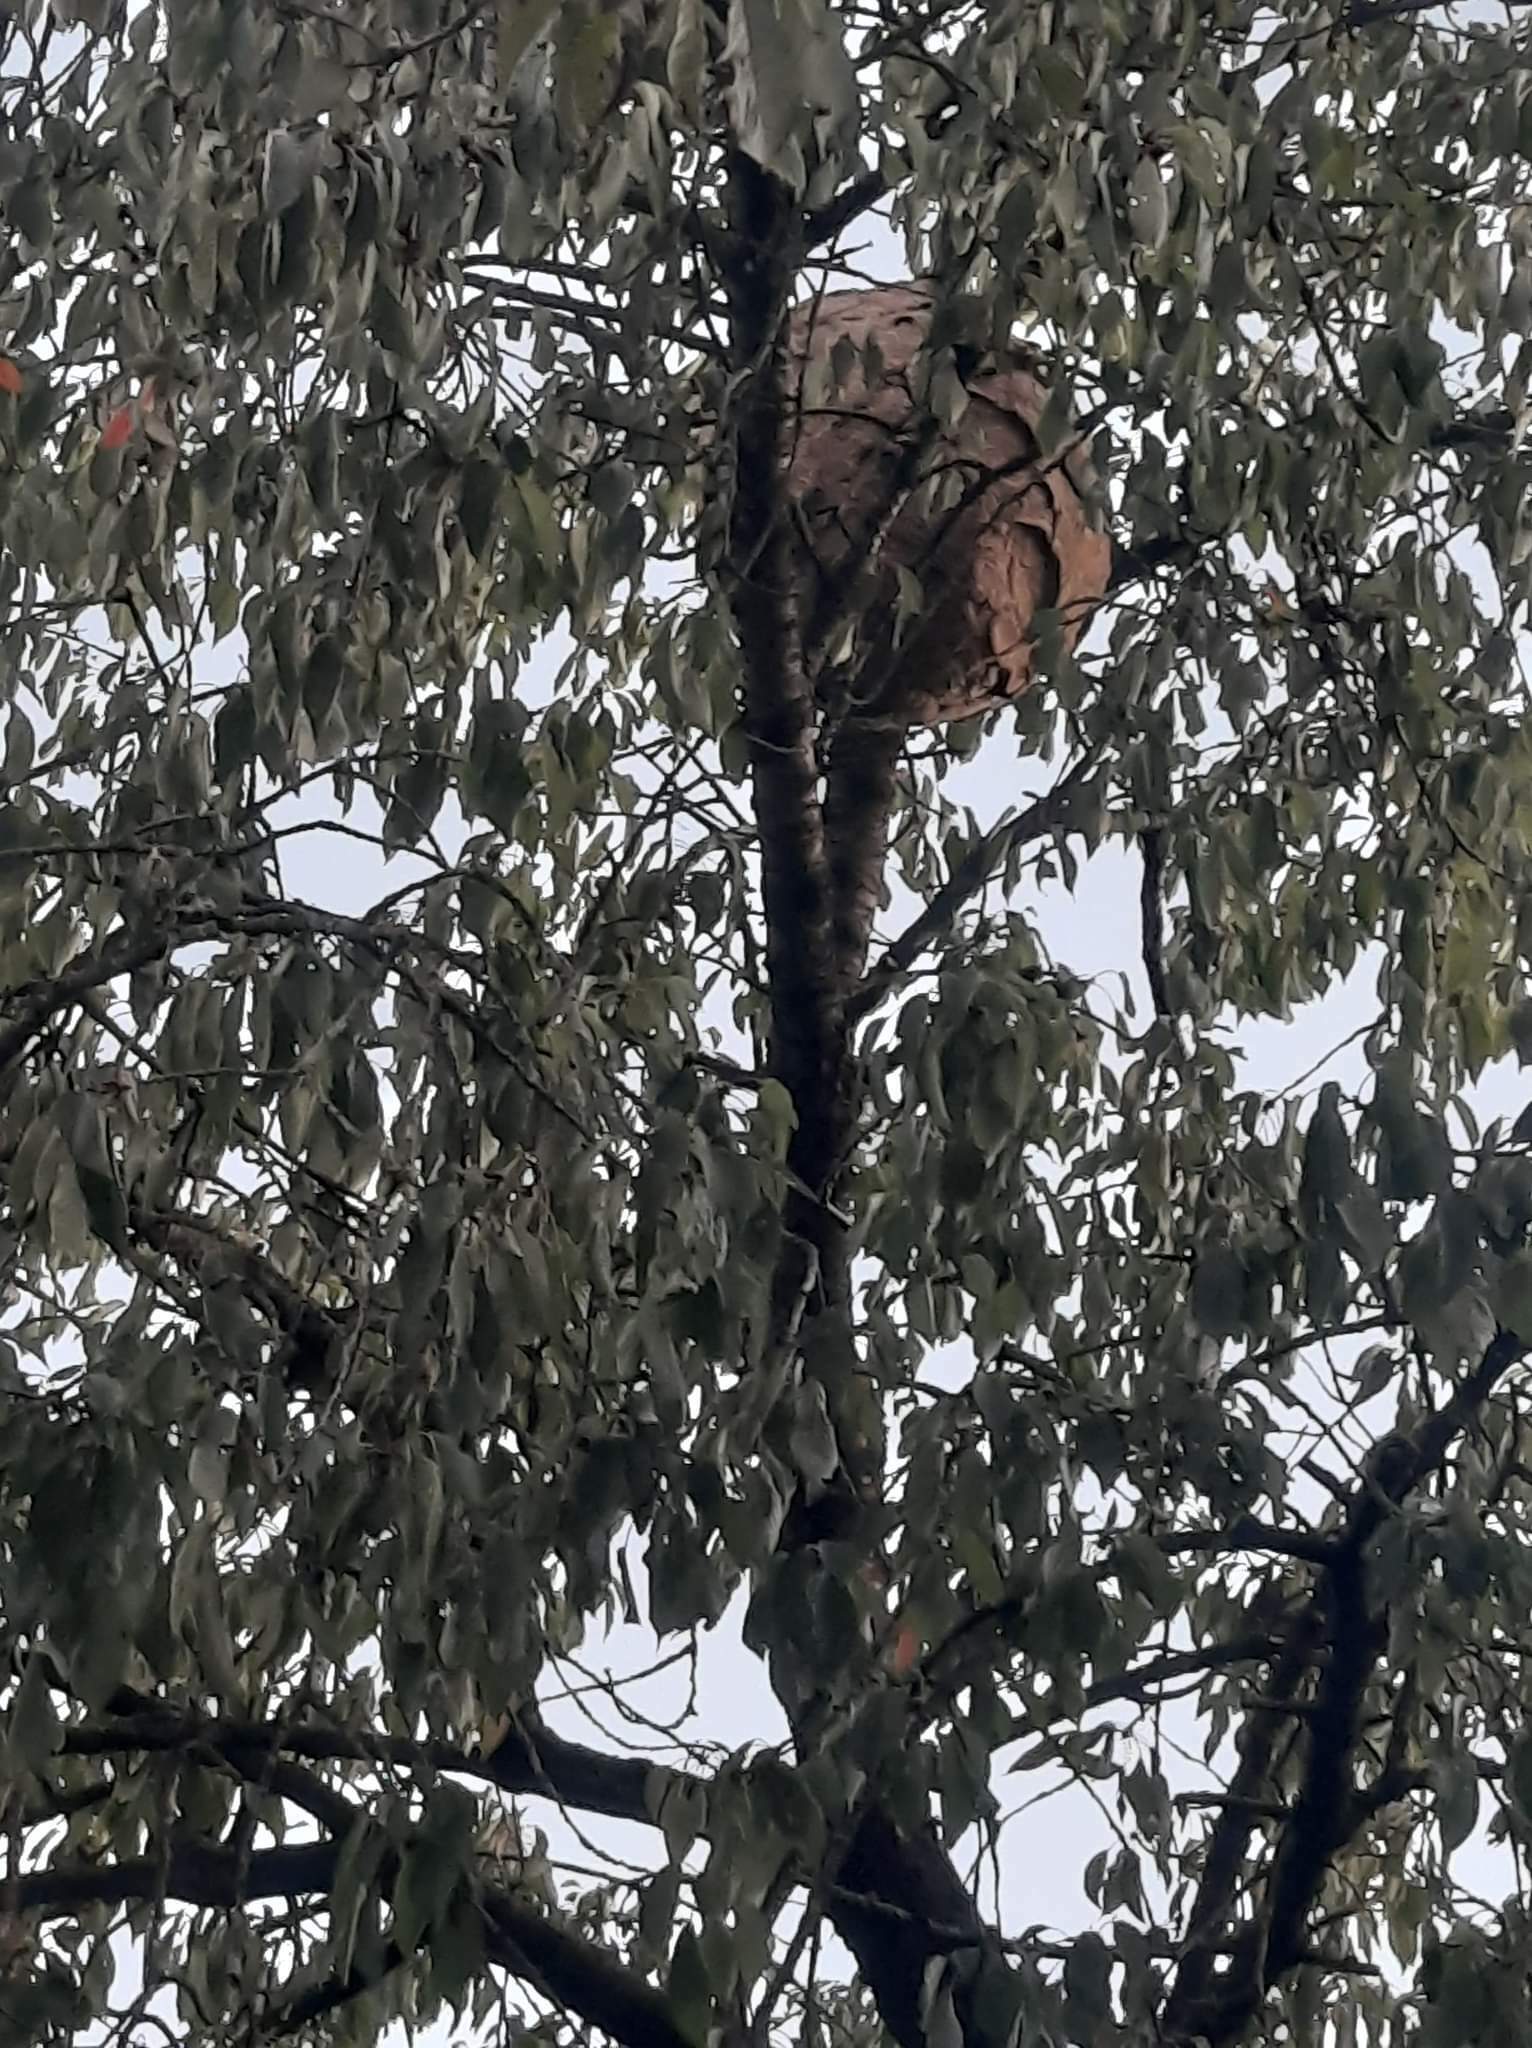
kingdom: Animalia
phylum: Arthropoda
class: Insecta
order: Hymenoptera
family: Vespidae
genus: Vespa
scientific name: Vespa velutina
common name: Asian hornet
